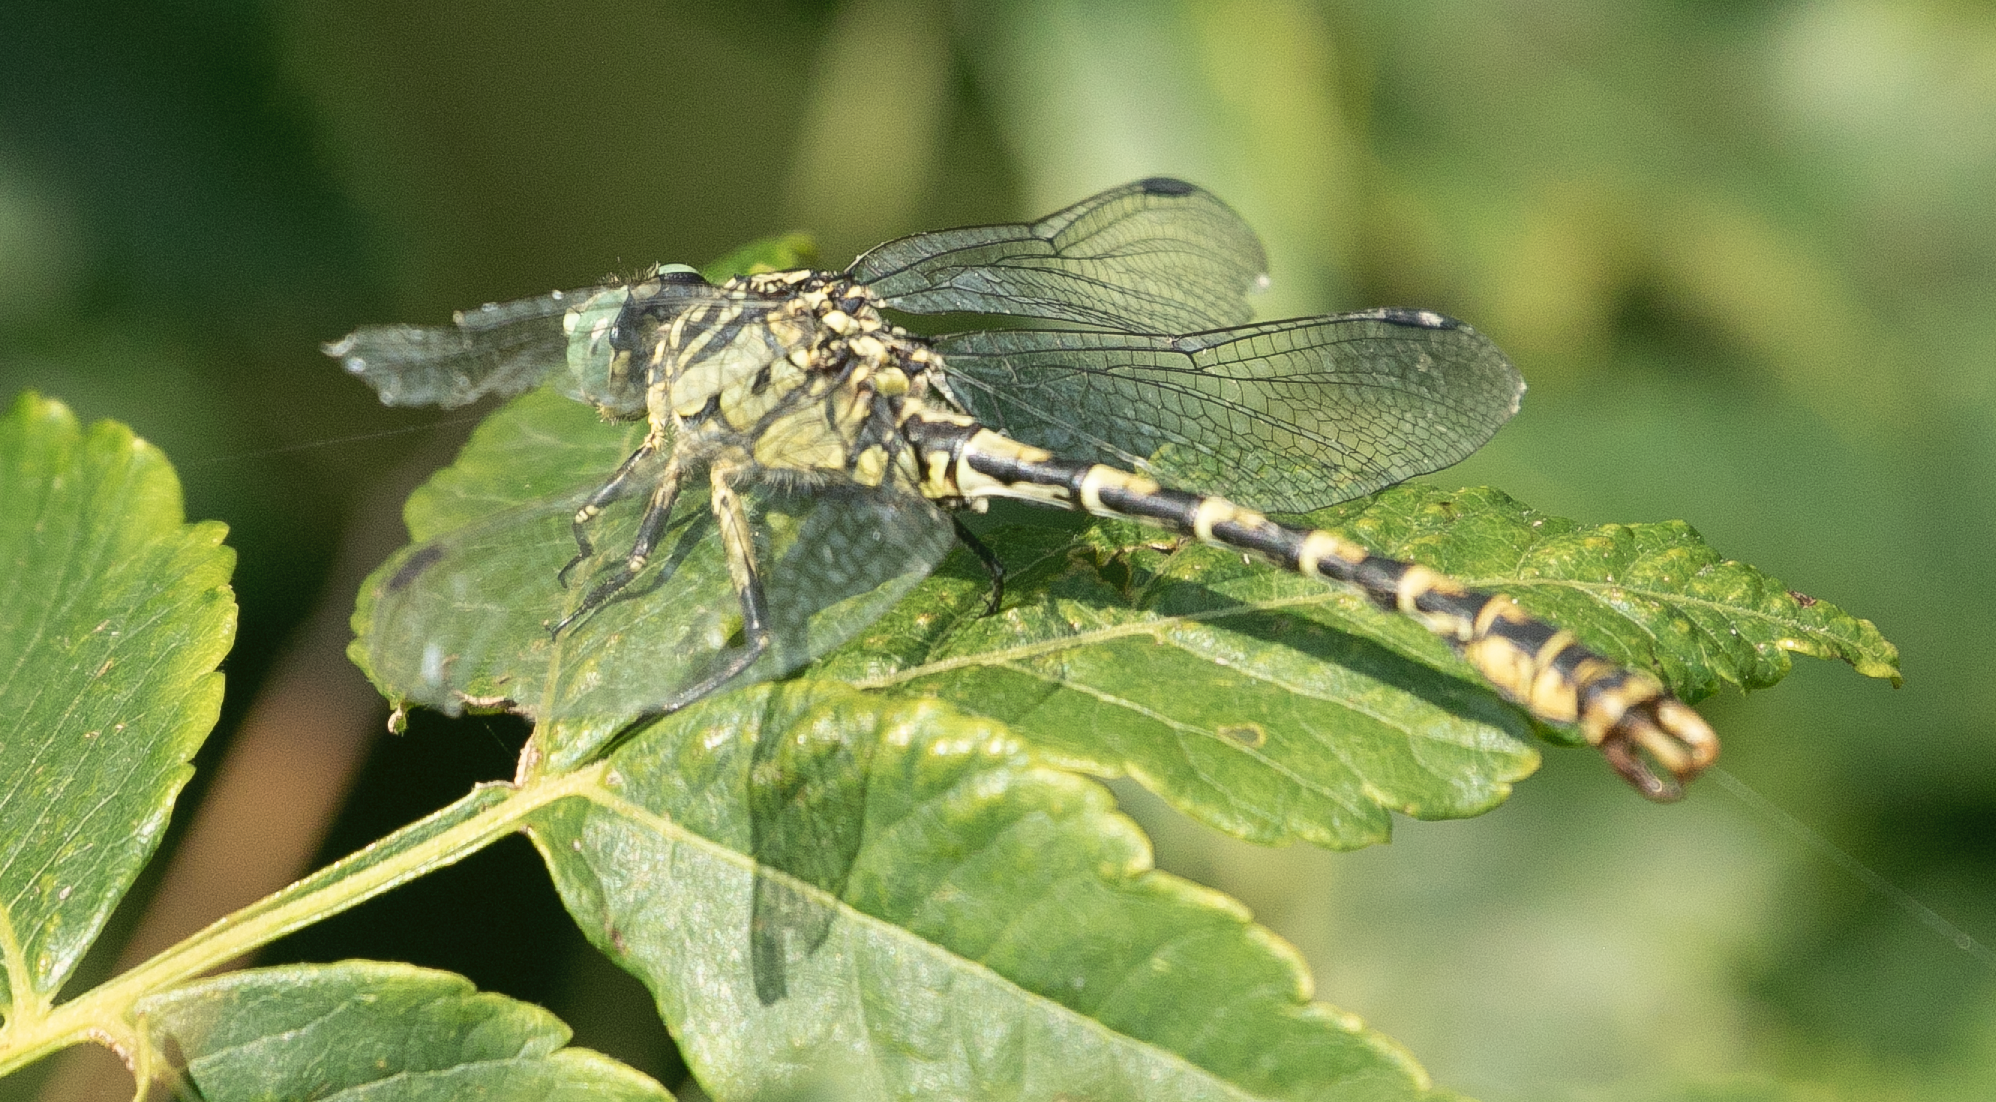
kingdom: Animalia
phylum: Arthropoda
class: Insecta
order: Odonata
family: Gomphidae
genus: Onychogomphus
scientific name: Onychogomphus forcipatus
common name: Small pincertail
